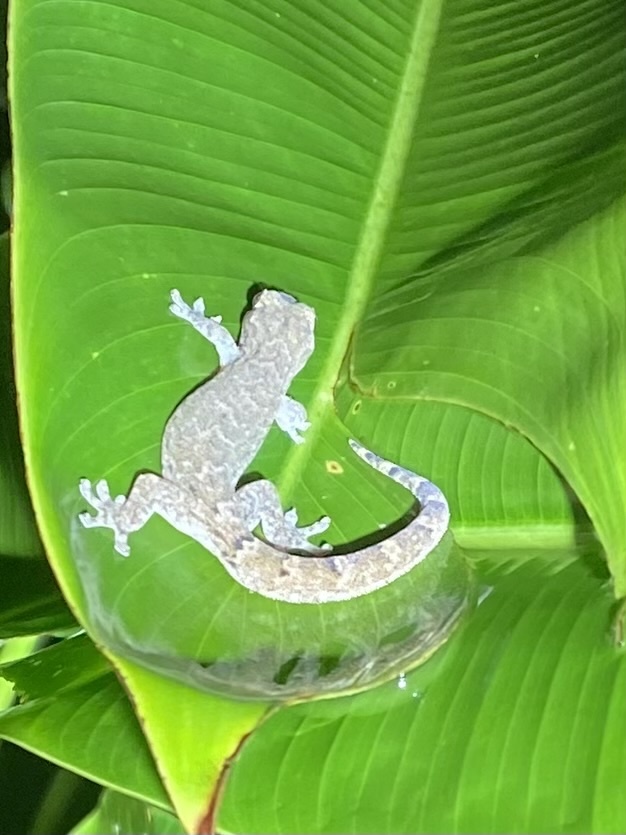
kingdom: Animalia
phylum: Chordata
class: Squamata
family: Gekkonidae
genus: Lepidodactylus
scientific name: Lepidodactylus lugubris
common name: Mourning gecko
